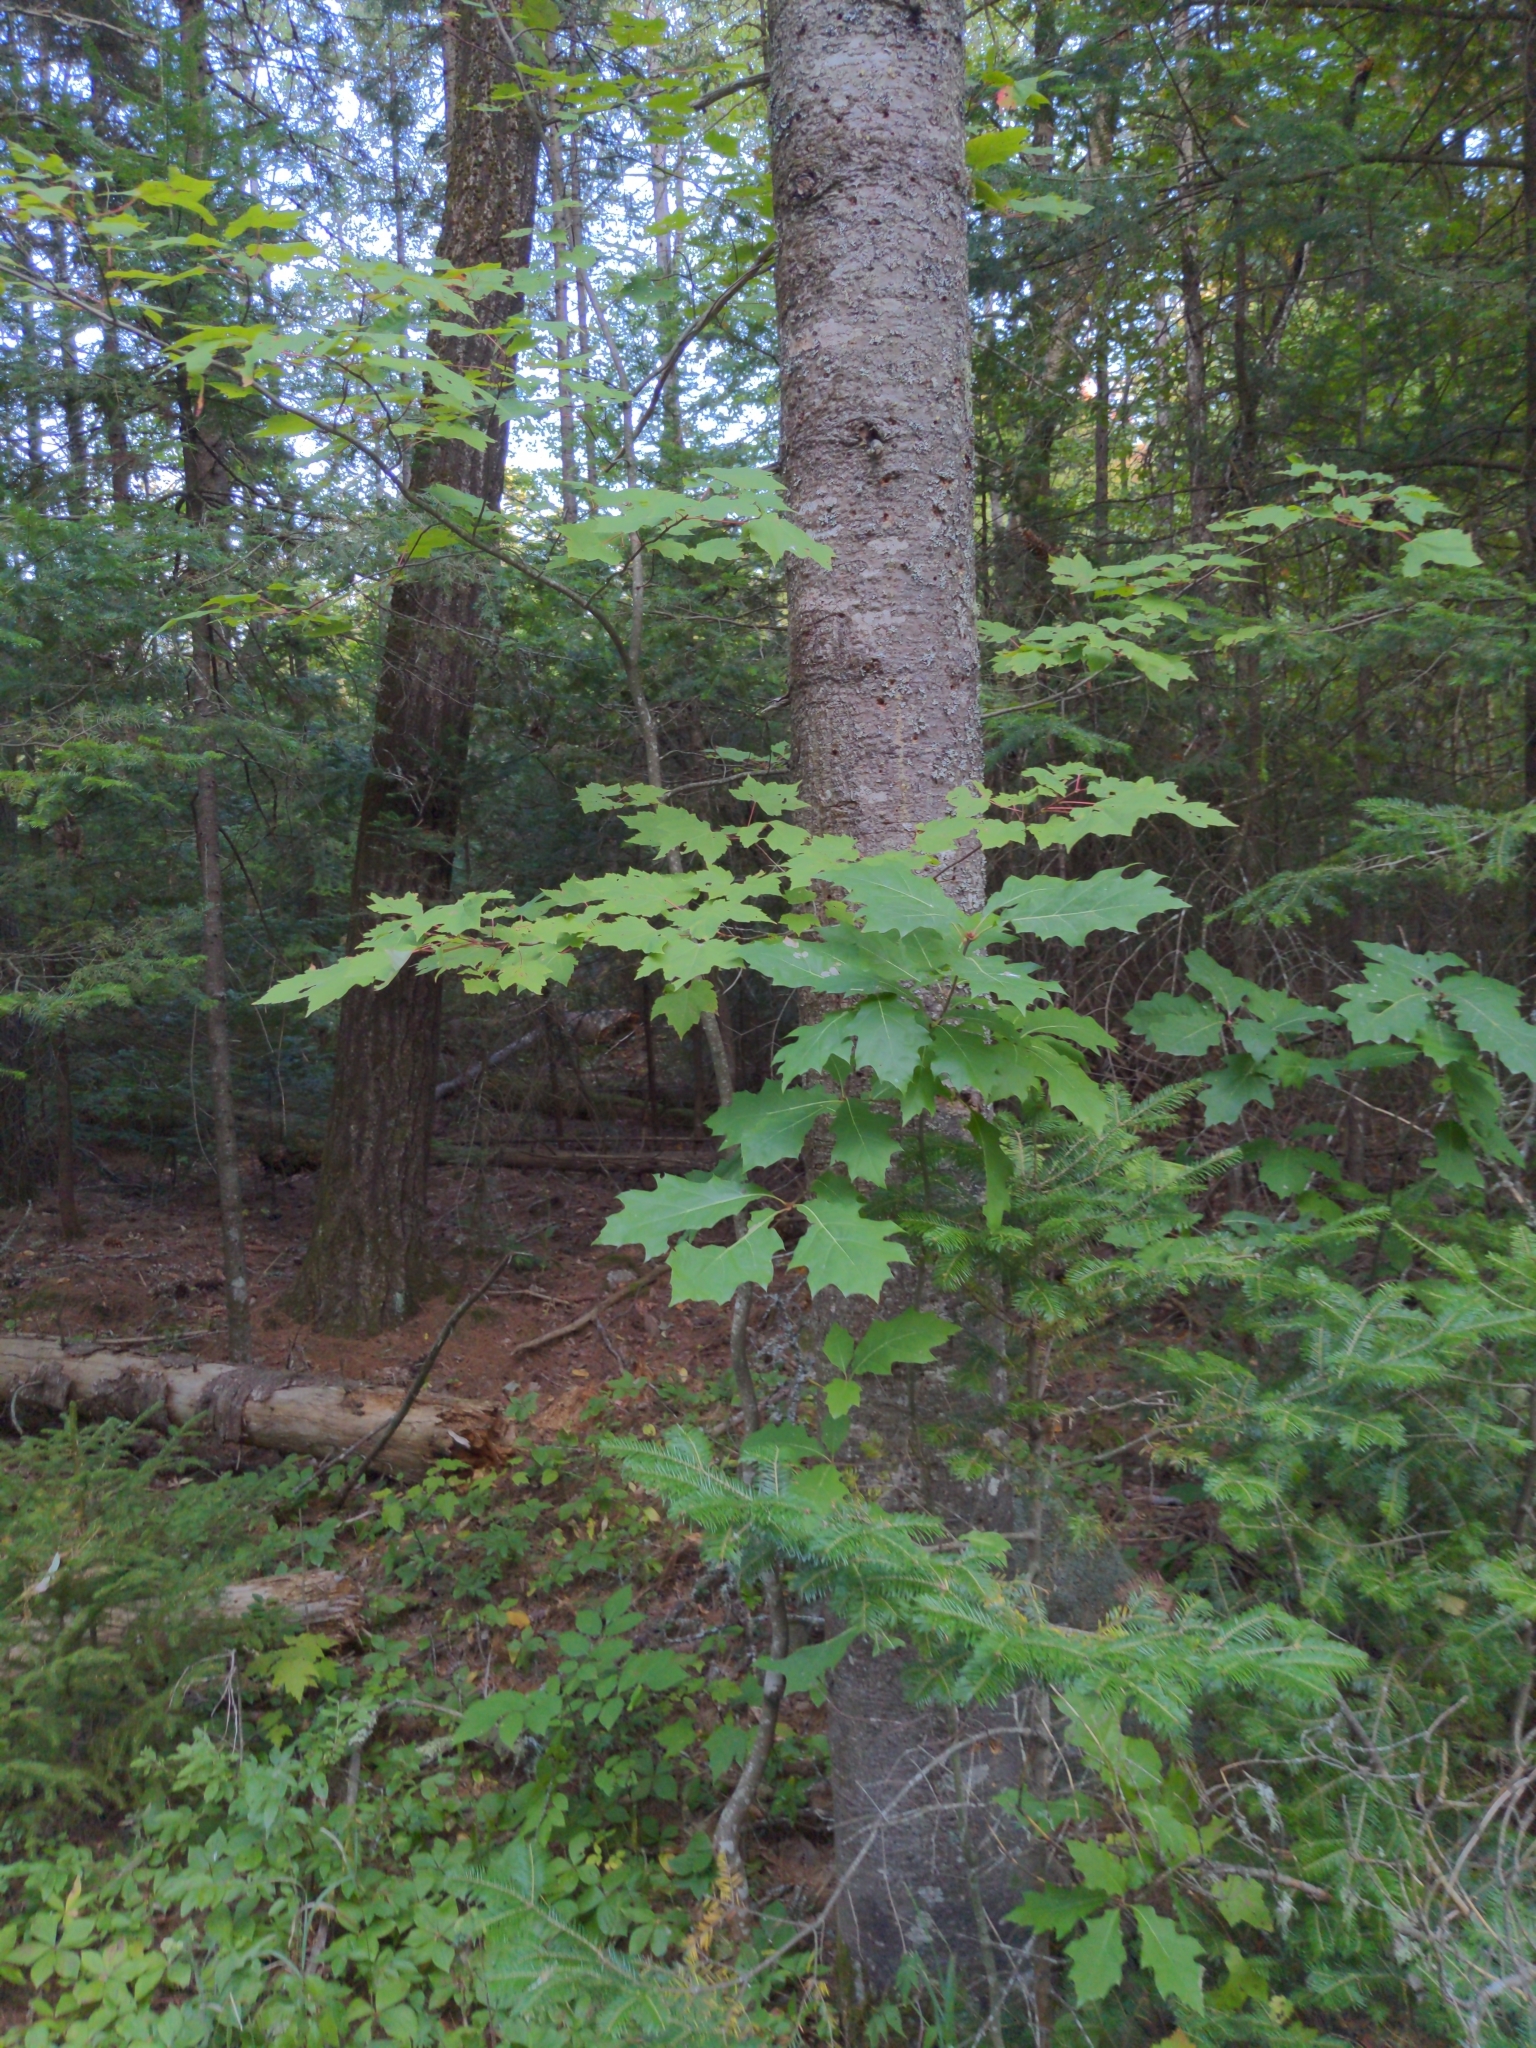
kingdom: Plantae
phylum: Tracheophyta
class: Magnoliopsida
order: Fagales
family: Fagaceae
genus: Quercus
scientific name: Quercus rubra
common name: Red oak
